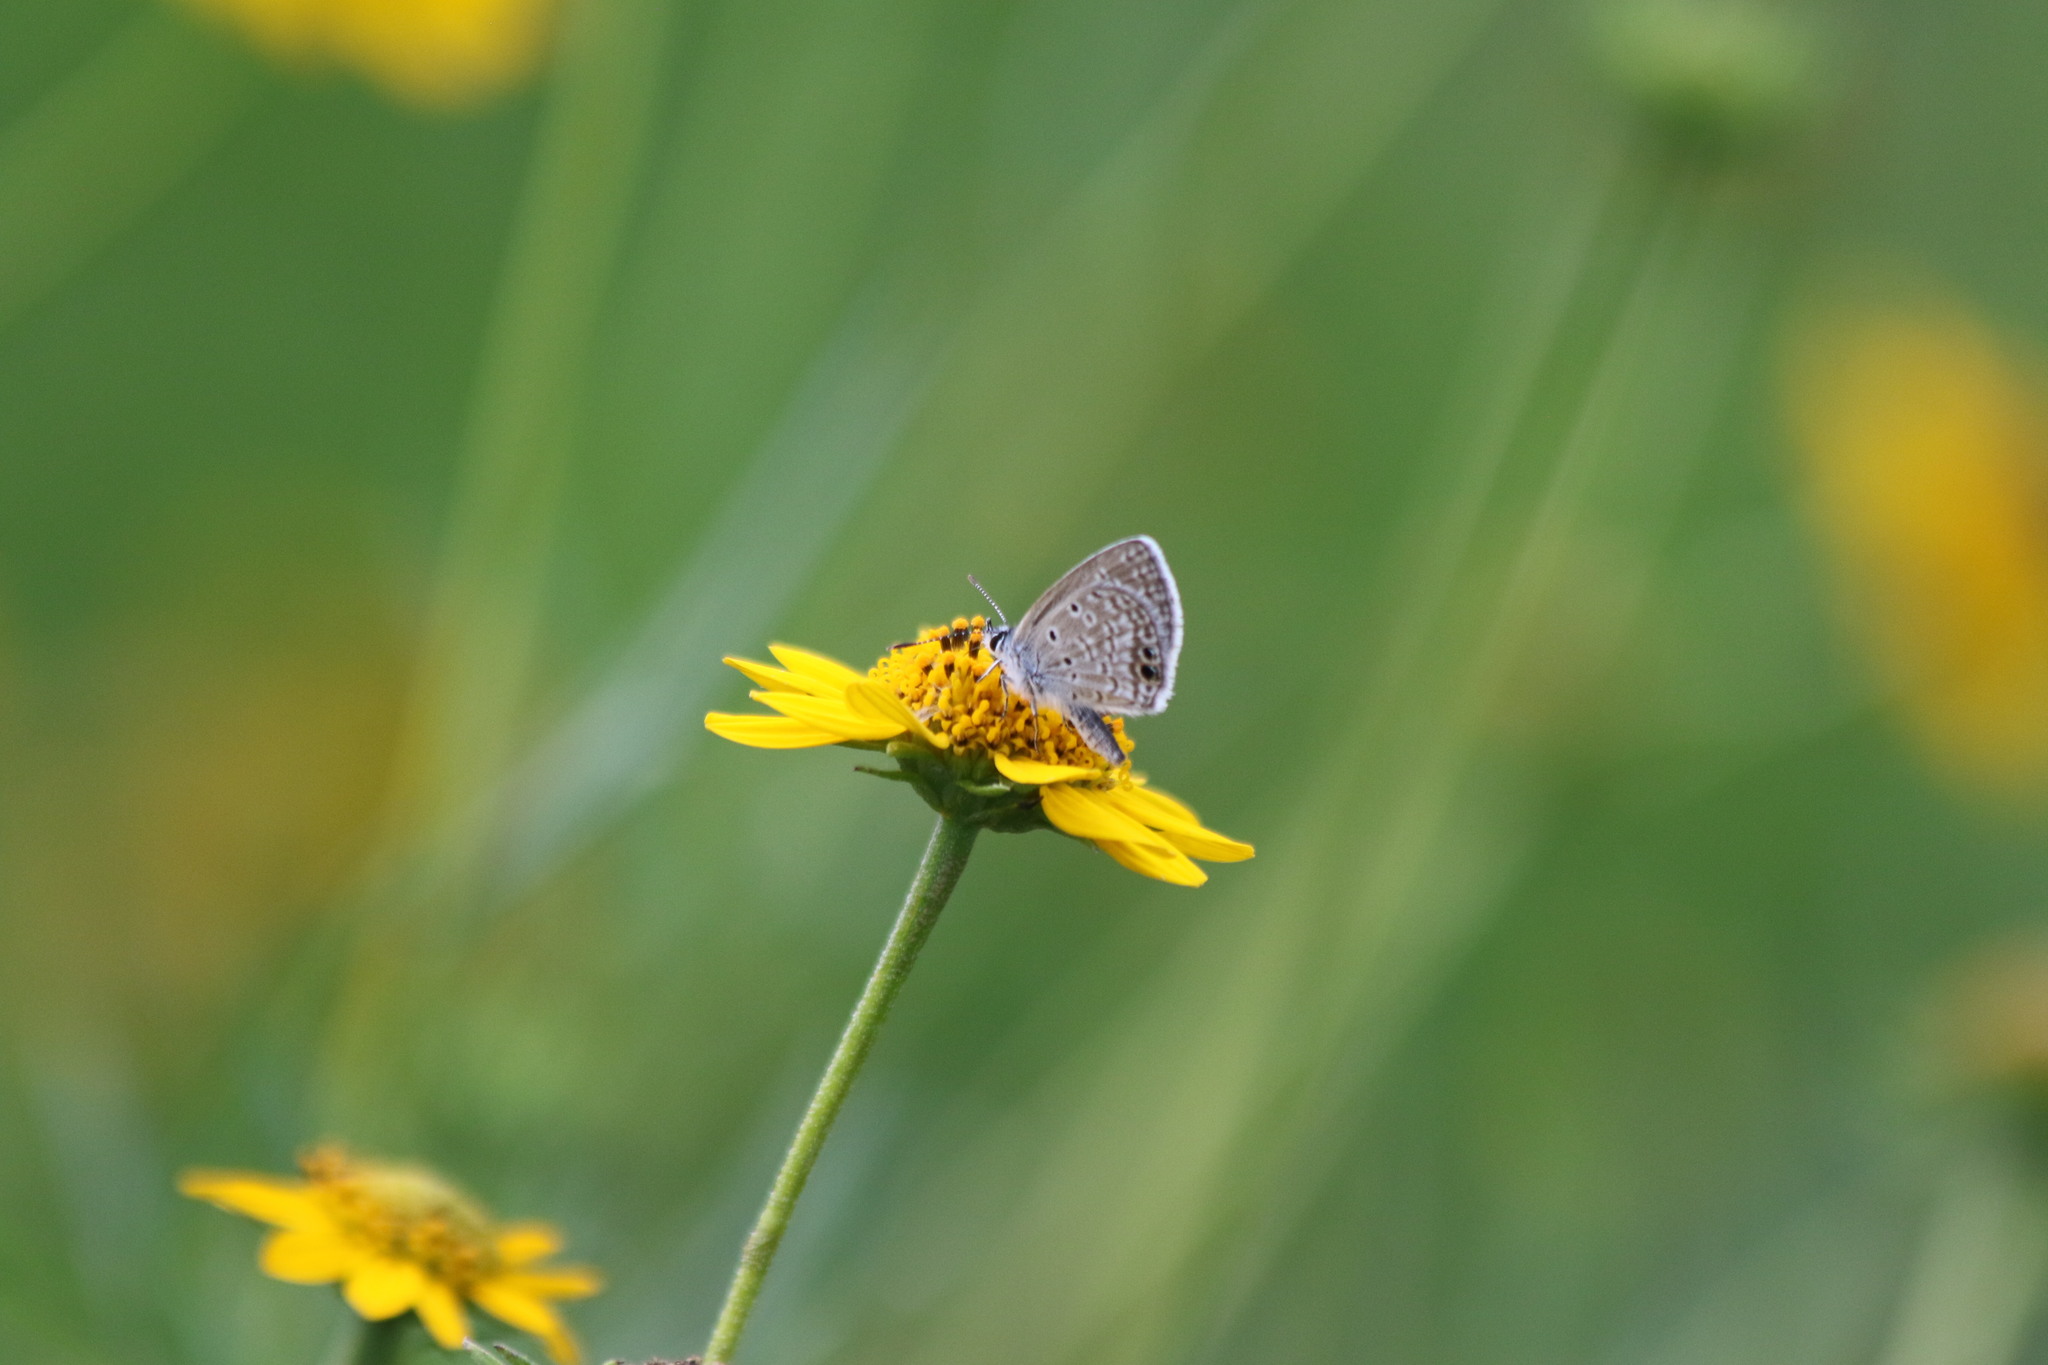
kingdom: Animalia
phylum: Arthropoda
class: Insecta
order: Lepidoptera
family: Lycaenidae
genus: Hemiargus
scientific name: Hemiargus ceraunus
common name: Ceraunus blue
